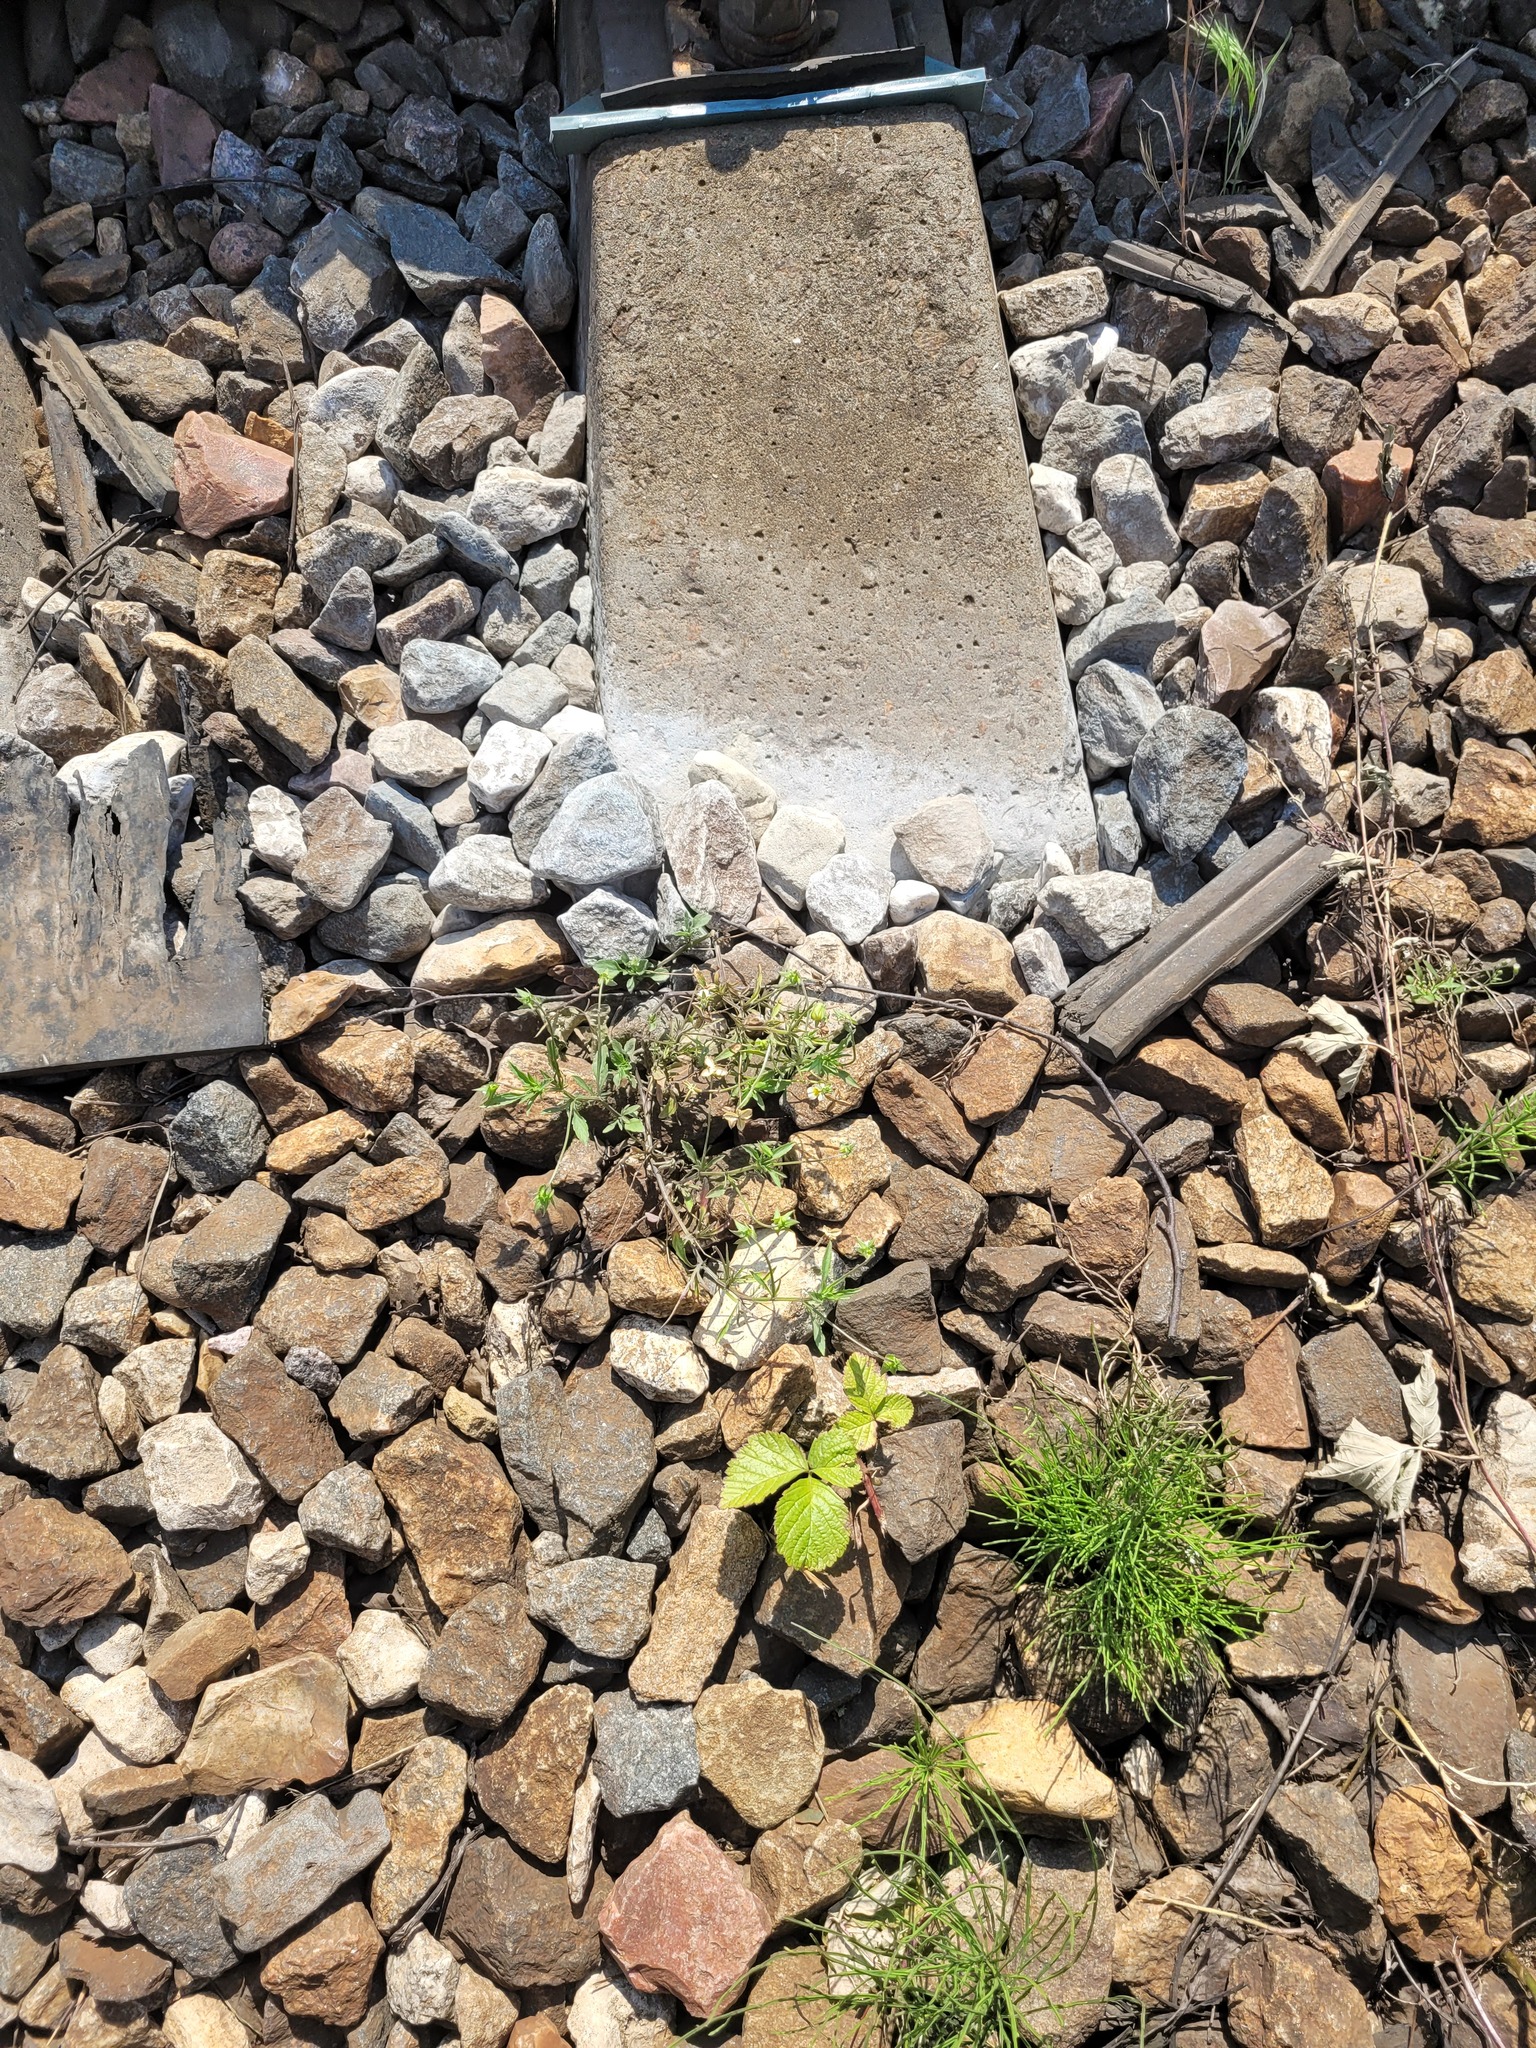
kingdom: Plantae
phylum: Tracheophyta
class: Magnoliopsida
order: Malpighiales
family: Violaceae
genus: Viola
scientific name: Viola arvensis
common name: Field pansy
